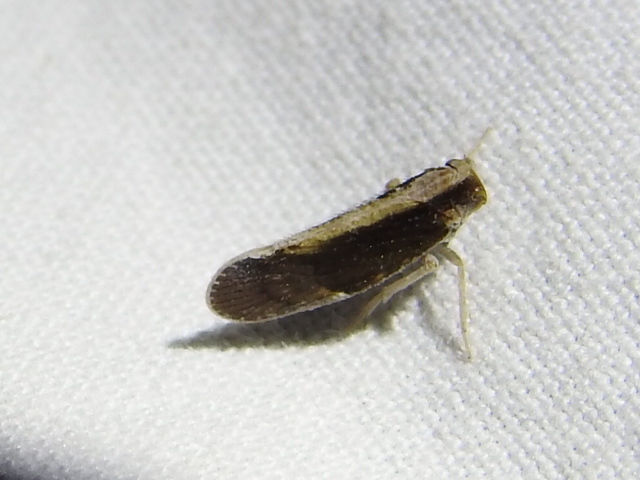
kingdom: Animalia
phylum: Arthropoda
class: Insecta
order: Hemiptera
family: Cixiidae
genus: Pintalia
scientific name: Pintalia delicata
